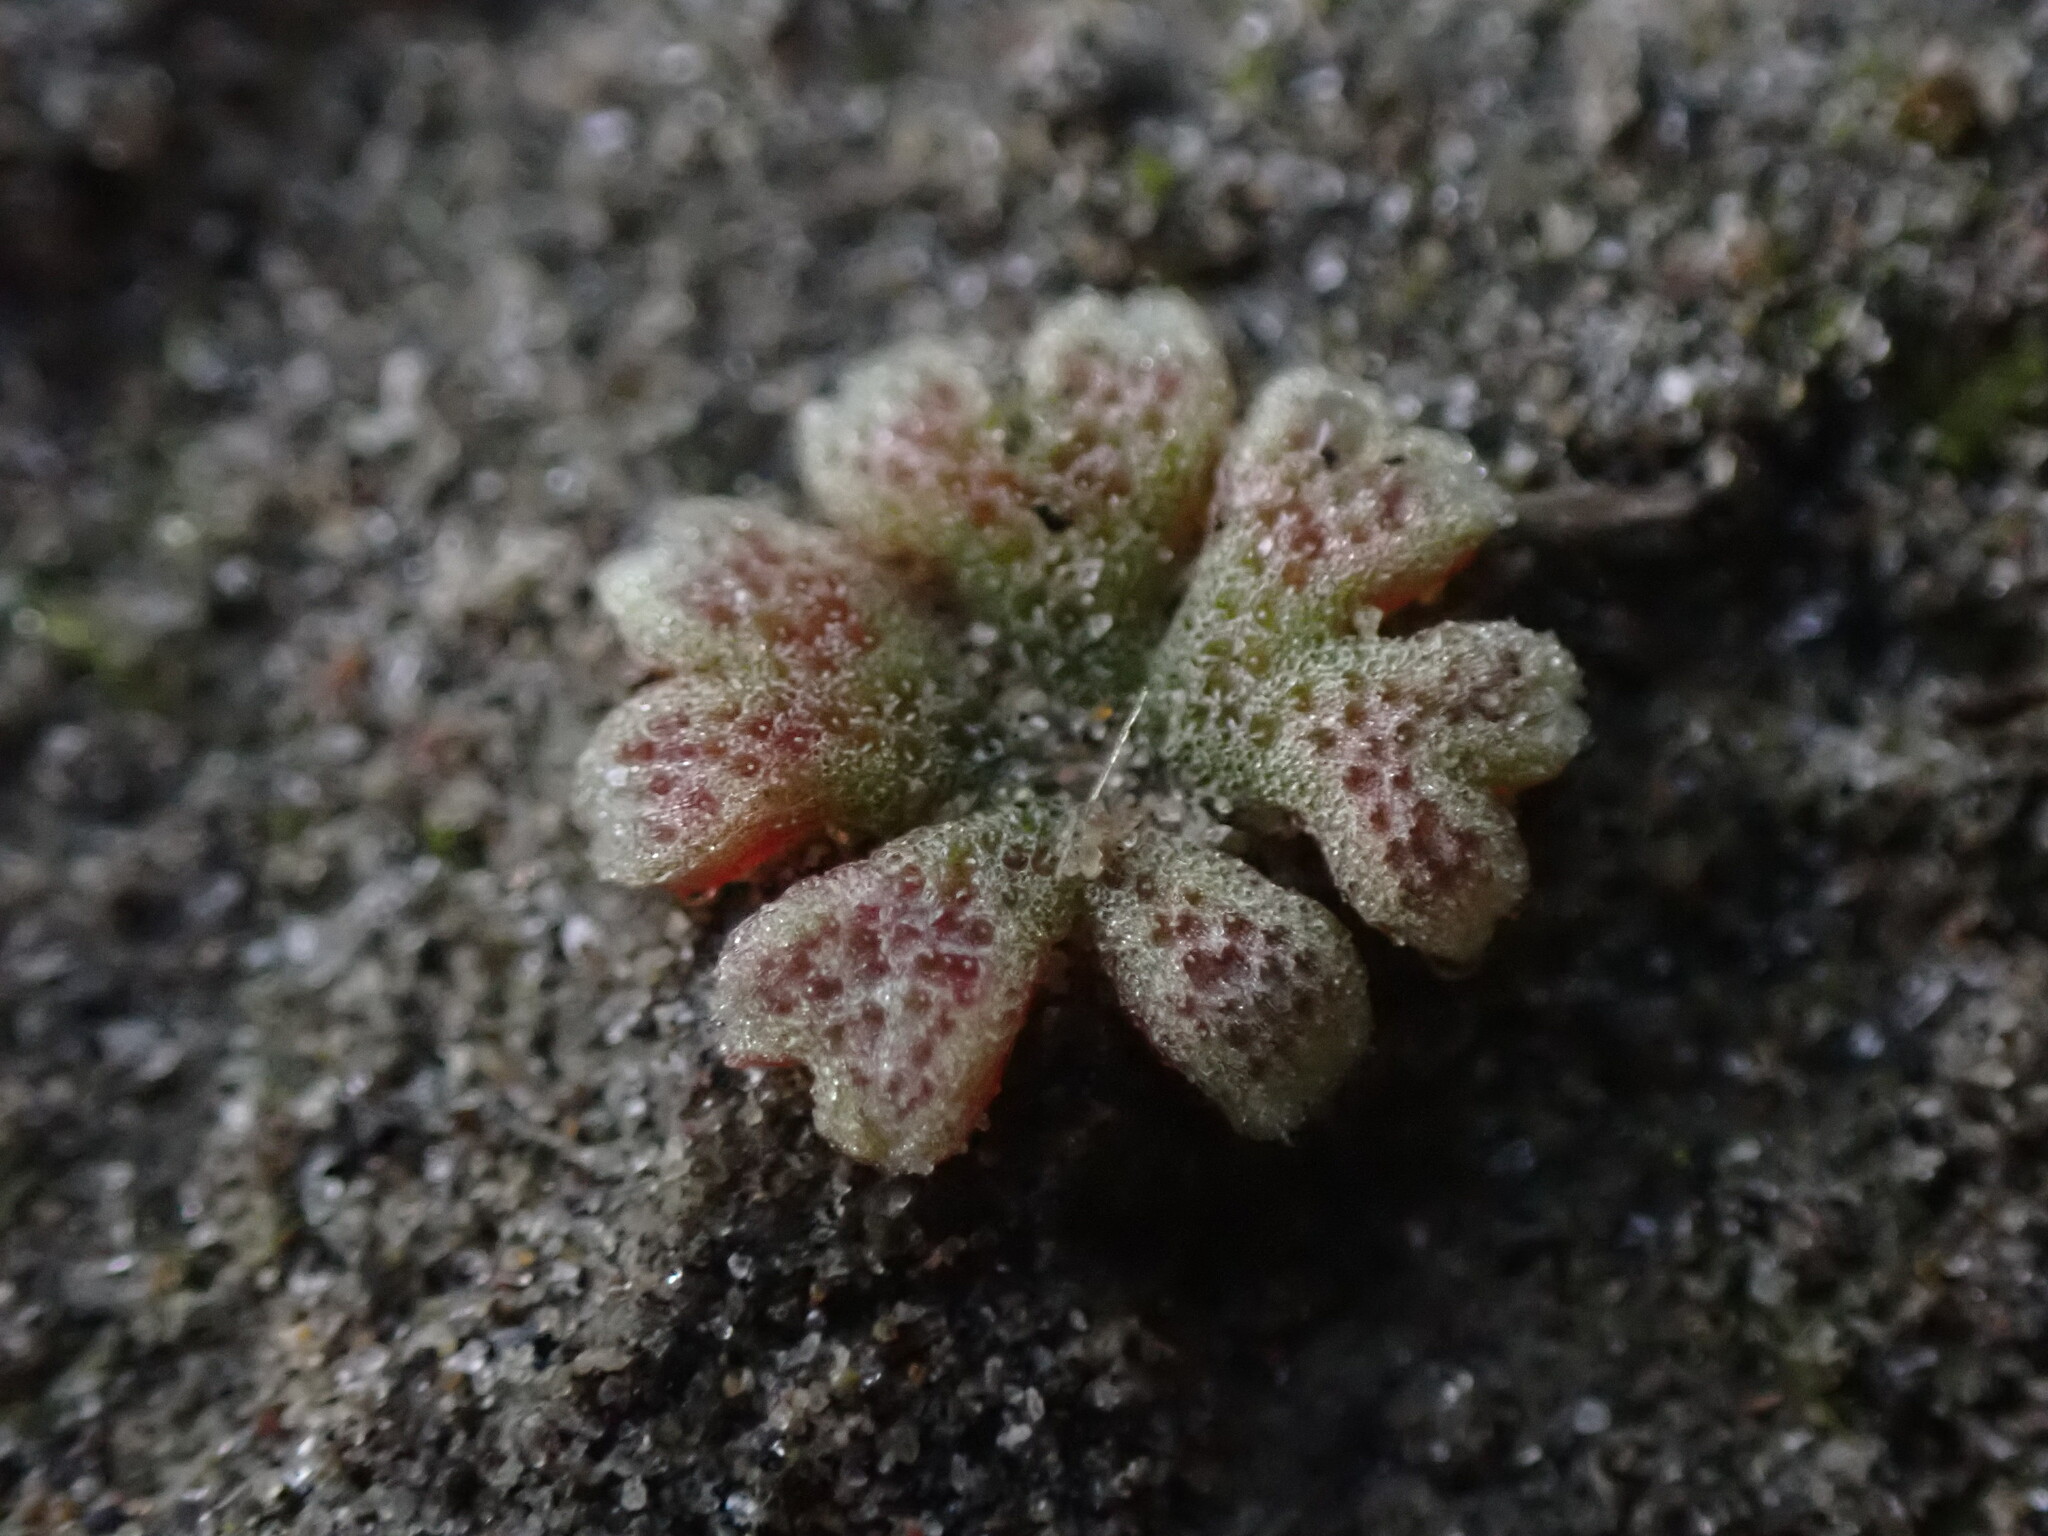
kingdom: Plantae
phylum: Marchantiophyta
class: Marchantiopsida
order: Marchantiales
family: Ricciaceae
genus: Riccia
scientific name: Riccia frostii
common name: Frost s crystalwort
